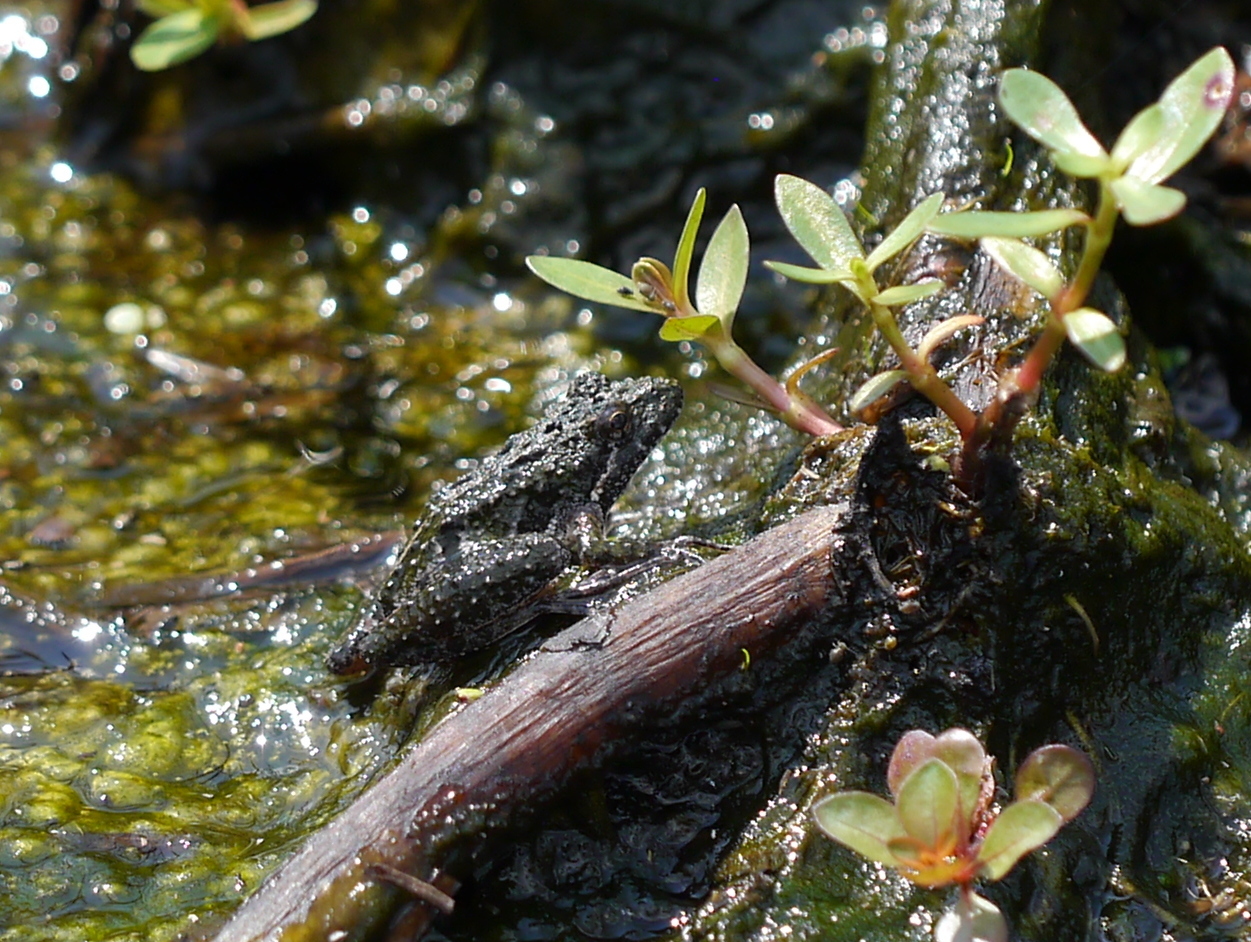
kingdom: Animalia
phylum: Chordata
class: Amphibia
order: Anura
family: Hylidae
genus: Acris
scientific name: Acris gryllus
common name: Southern cricket frog
